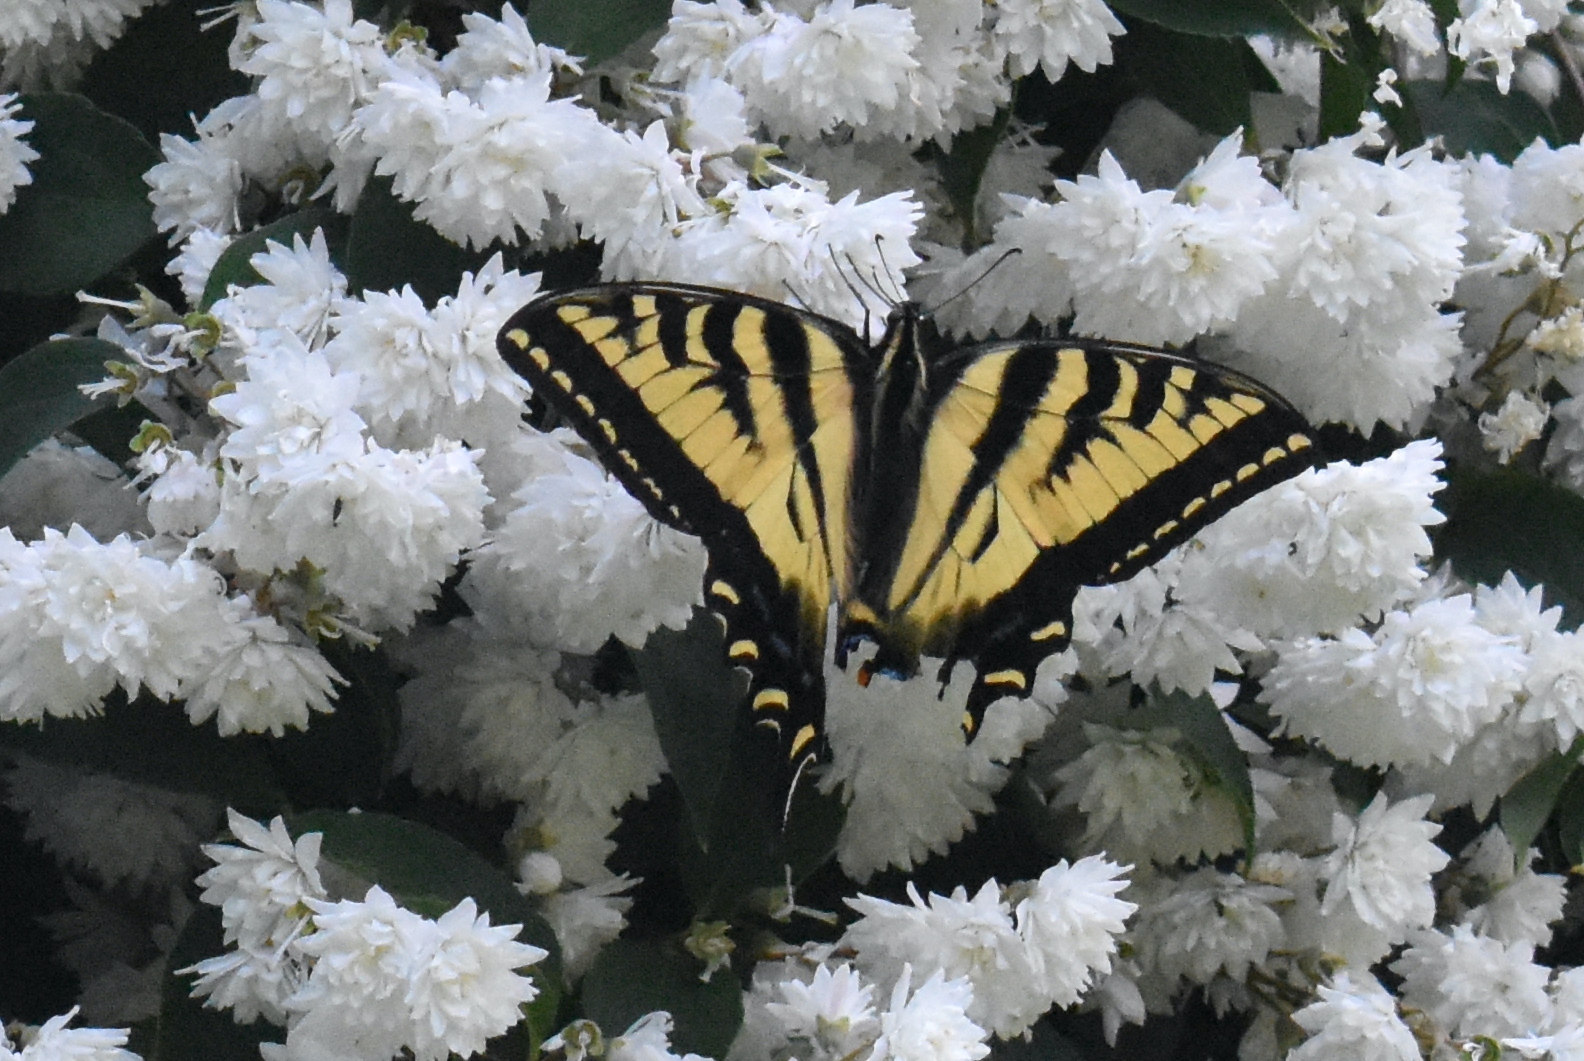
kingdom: Animalia
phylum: Arthropoda
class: Insecta
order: Lepidoptera
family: Papilionidae
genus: Papilio
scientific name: Papilio rutulus
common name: Western tiger swallowtail
